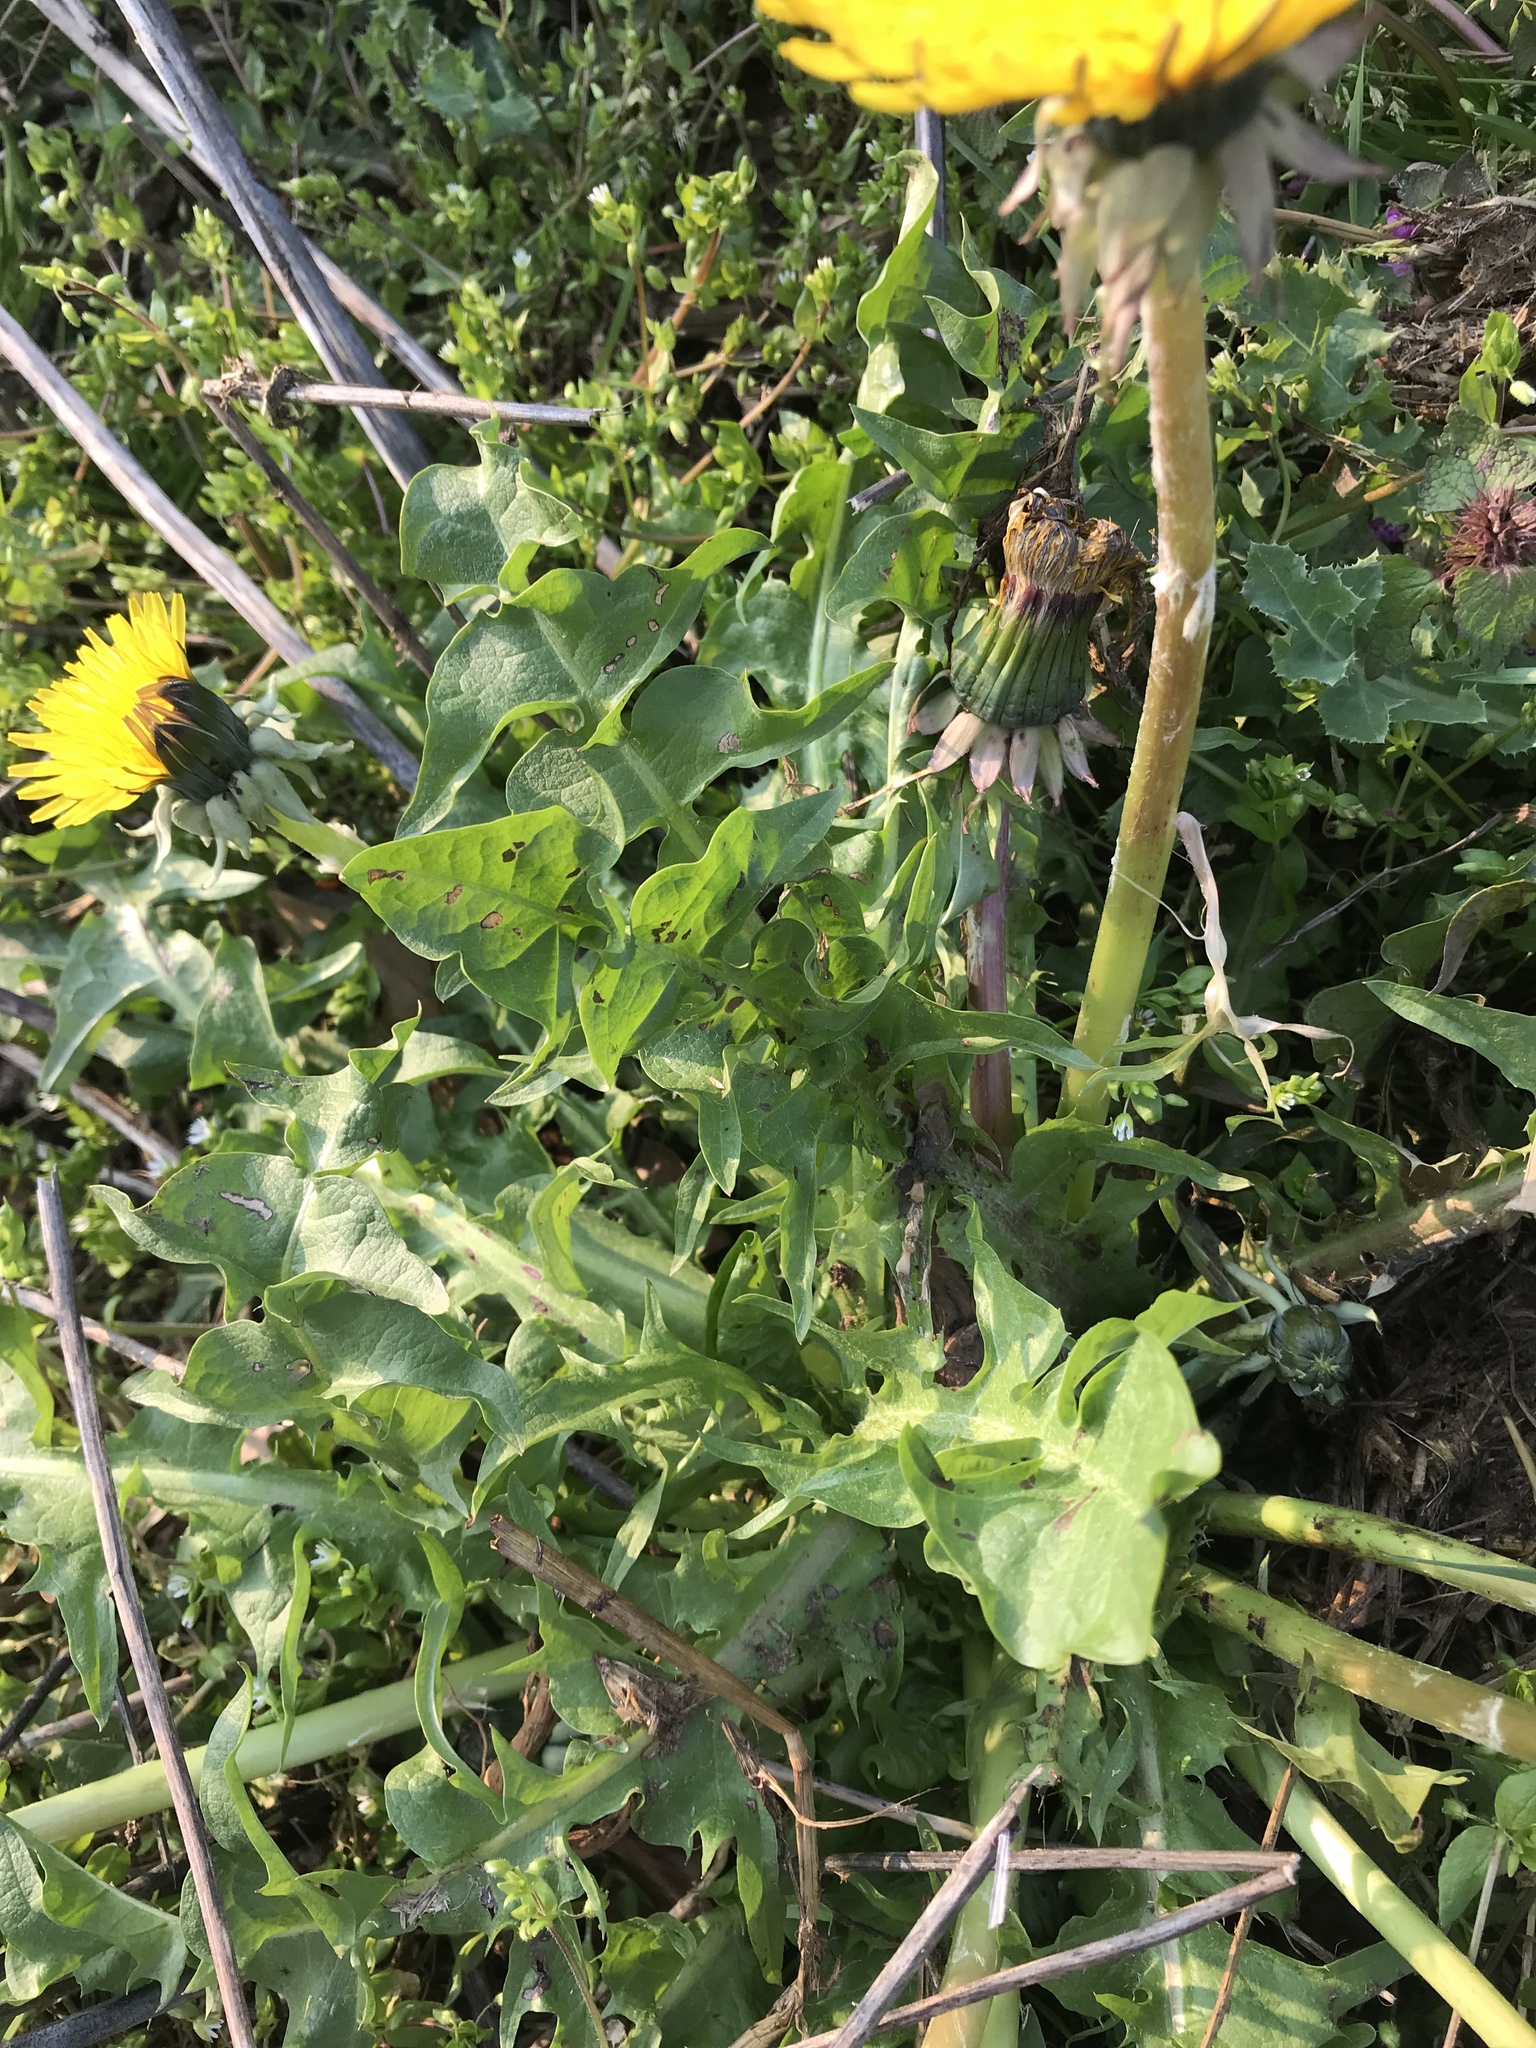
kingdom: Plantae
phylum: Tracheophyta
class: Magnoliopsida
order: Asterales
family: Asteraceae
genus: Taraxacum
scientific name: Taraxacum officinale
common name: Common dandelion
